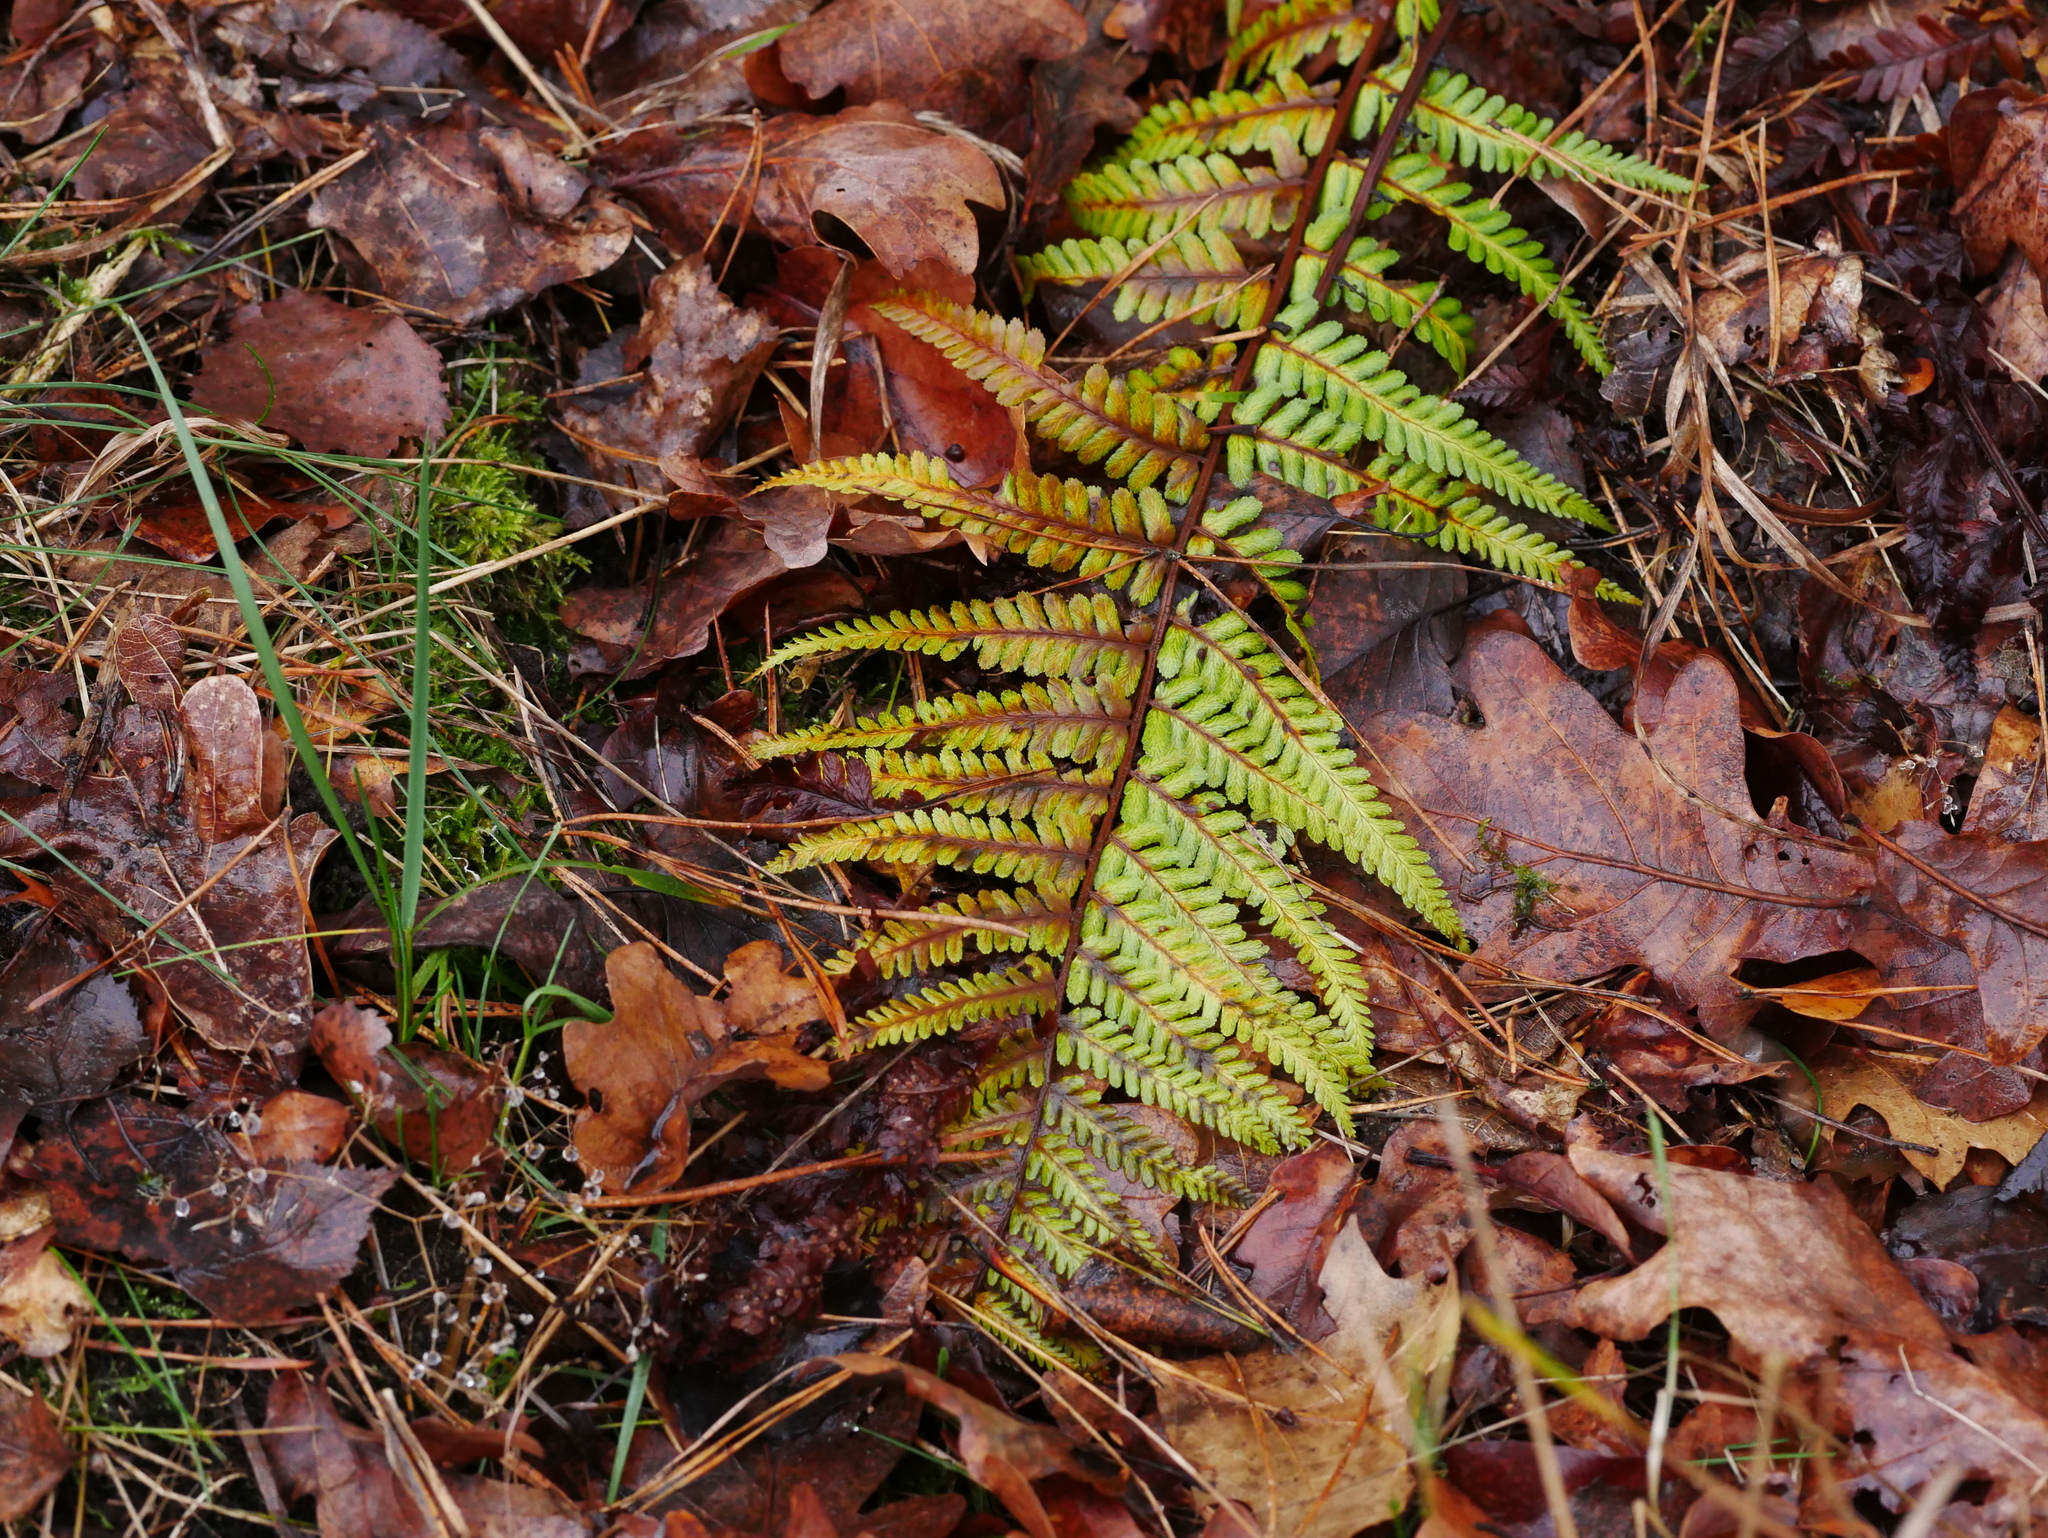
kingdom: Plantae
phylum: Tracheophyta
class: Polypodiopsida
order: Polypodiales
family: Dryopteridaceae
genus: Dryopteris
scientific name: Dryopteris filix-mas
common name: Male fern
